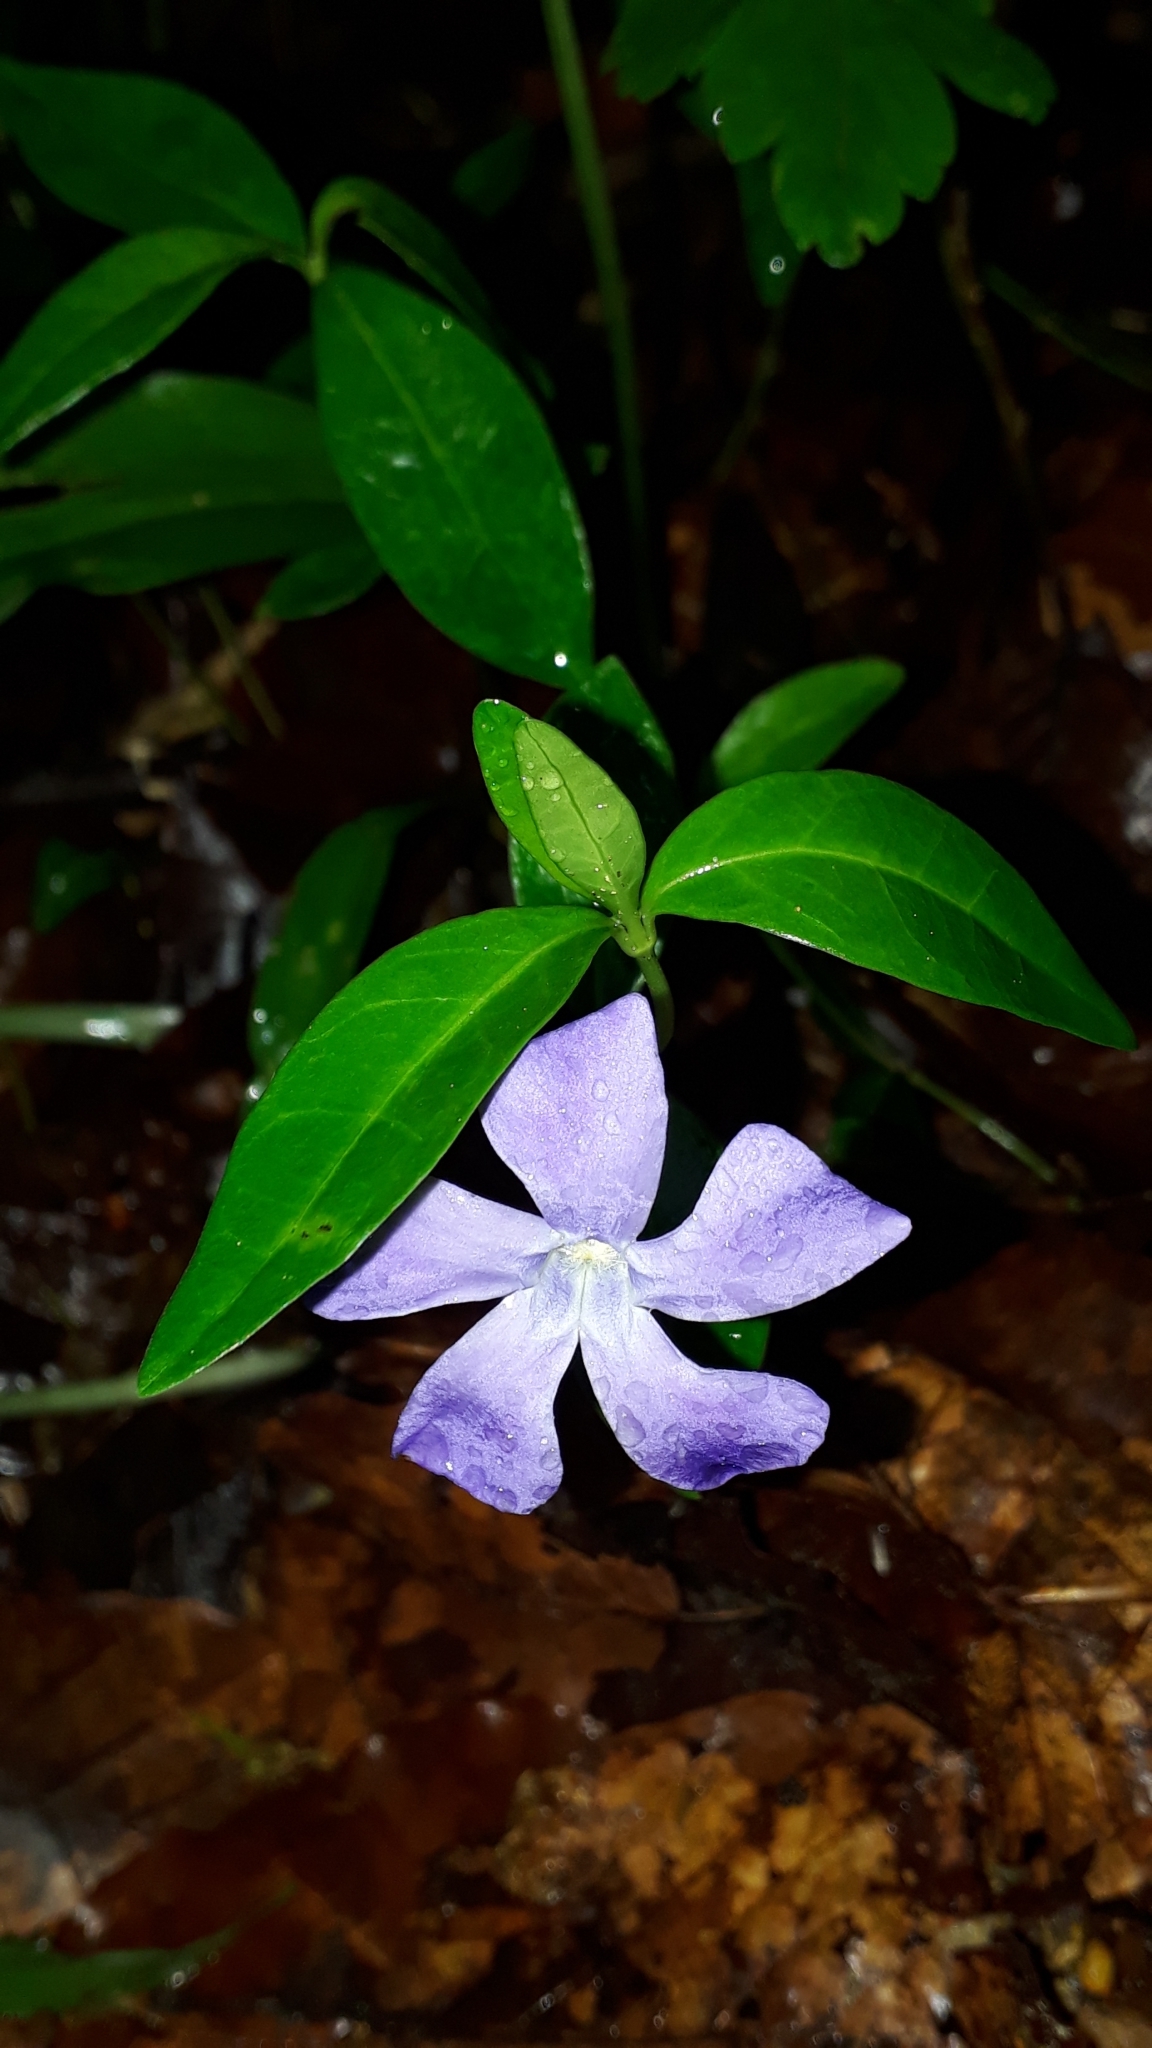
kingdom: Plantae
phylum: Tracheophyta
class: Magnoliopsida
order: Gentianales
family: Apocynaceae
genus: Vinca
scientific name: Vinca minor
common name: Lesser periwinkle
